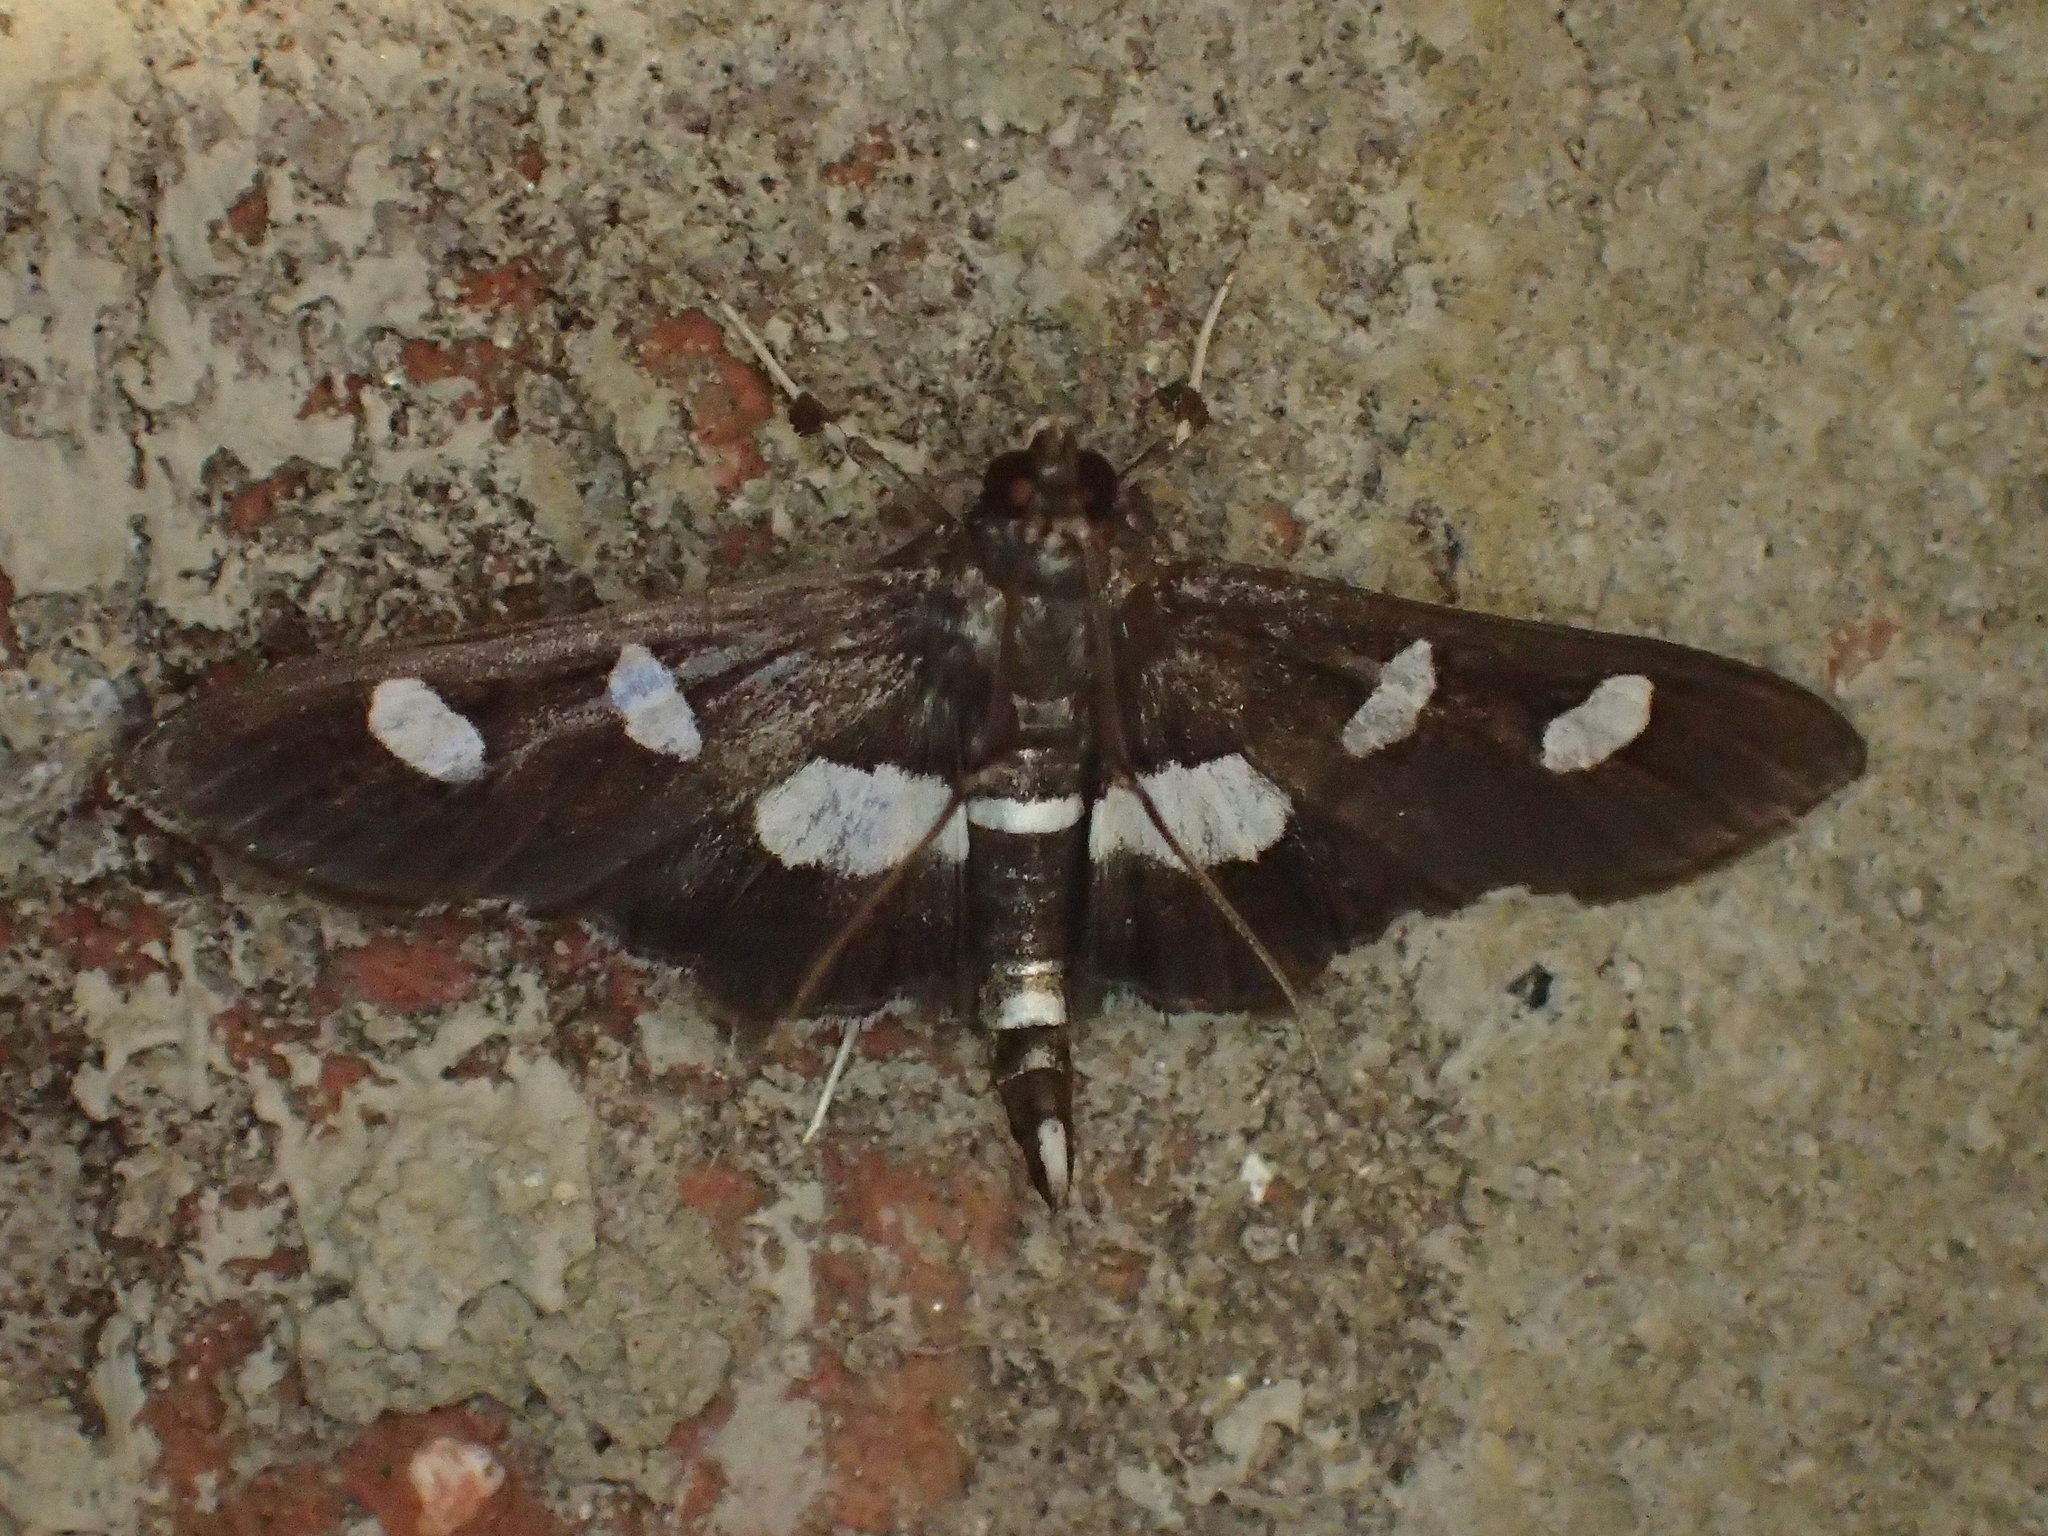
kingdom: Animalia
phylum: Arthropoda
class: Insecta
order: Lepidoptera
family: Crambidae
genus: Desmia
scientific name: Desmia
